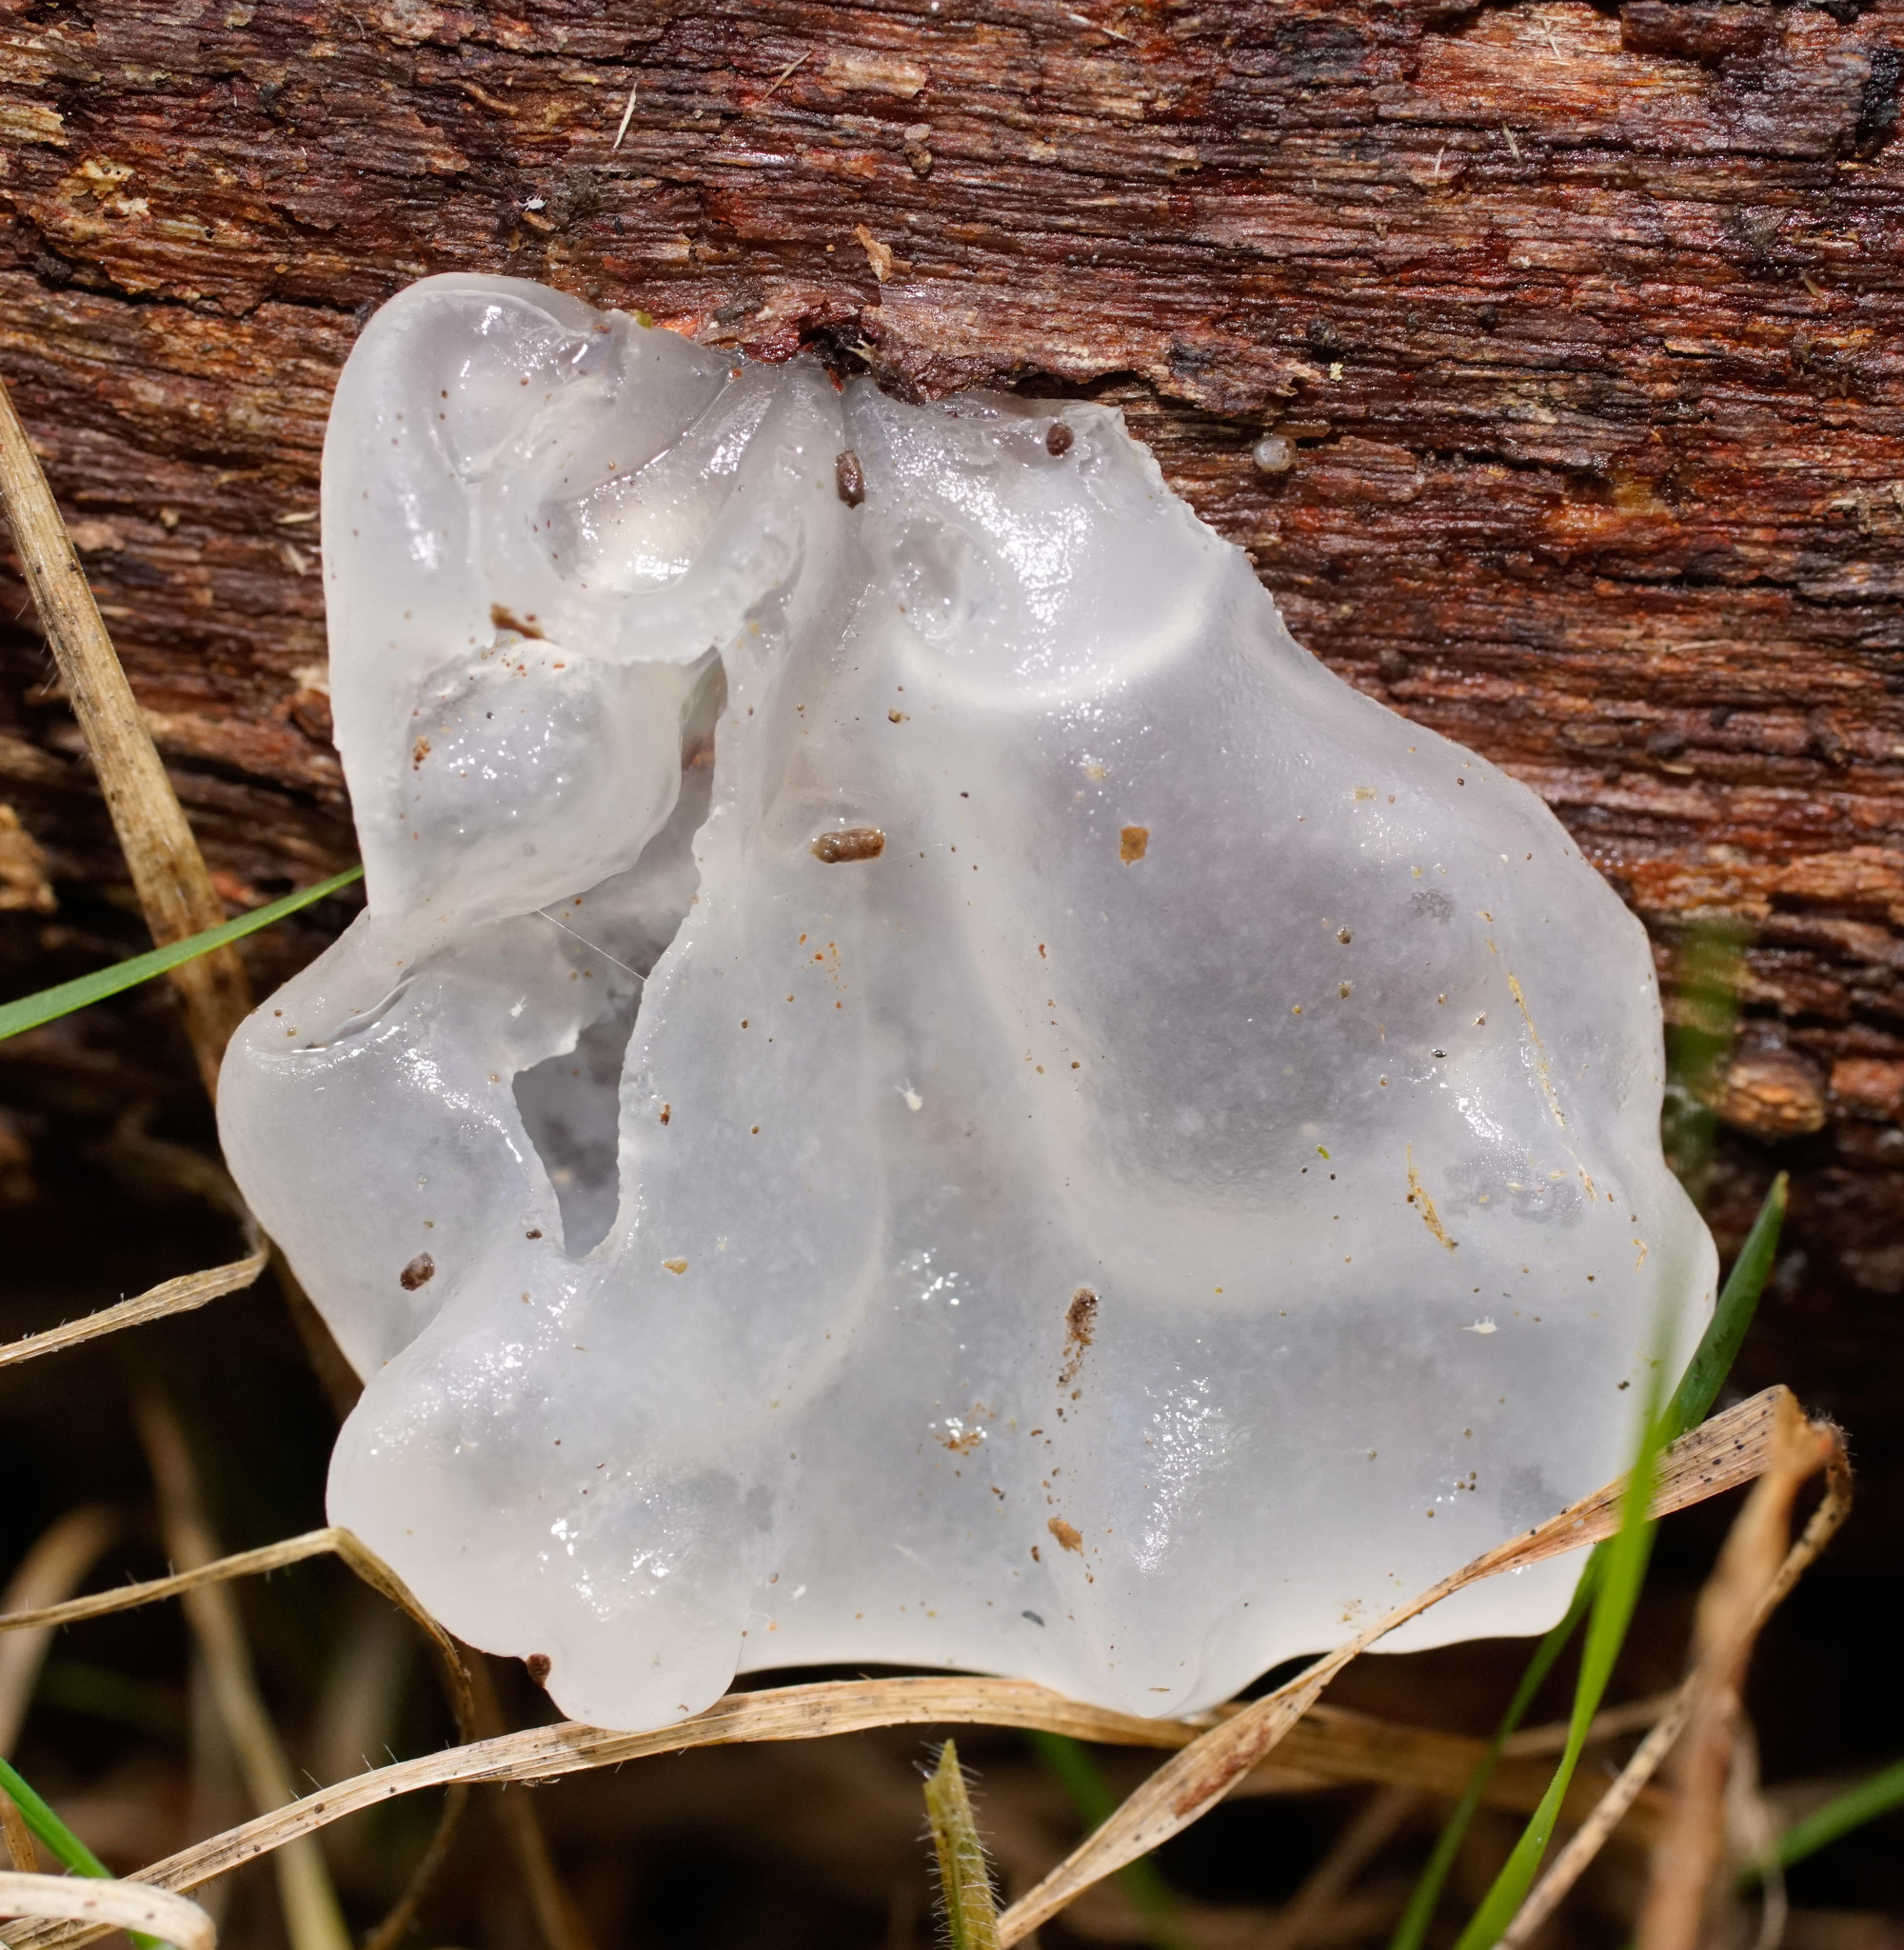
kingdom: Fungi
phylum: Basidiomycota
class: Tremellomycetes
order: Tremellales
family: Tremellaceae
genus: Tremella
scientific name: Tremella fuciformis
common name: Snow fungus
